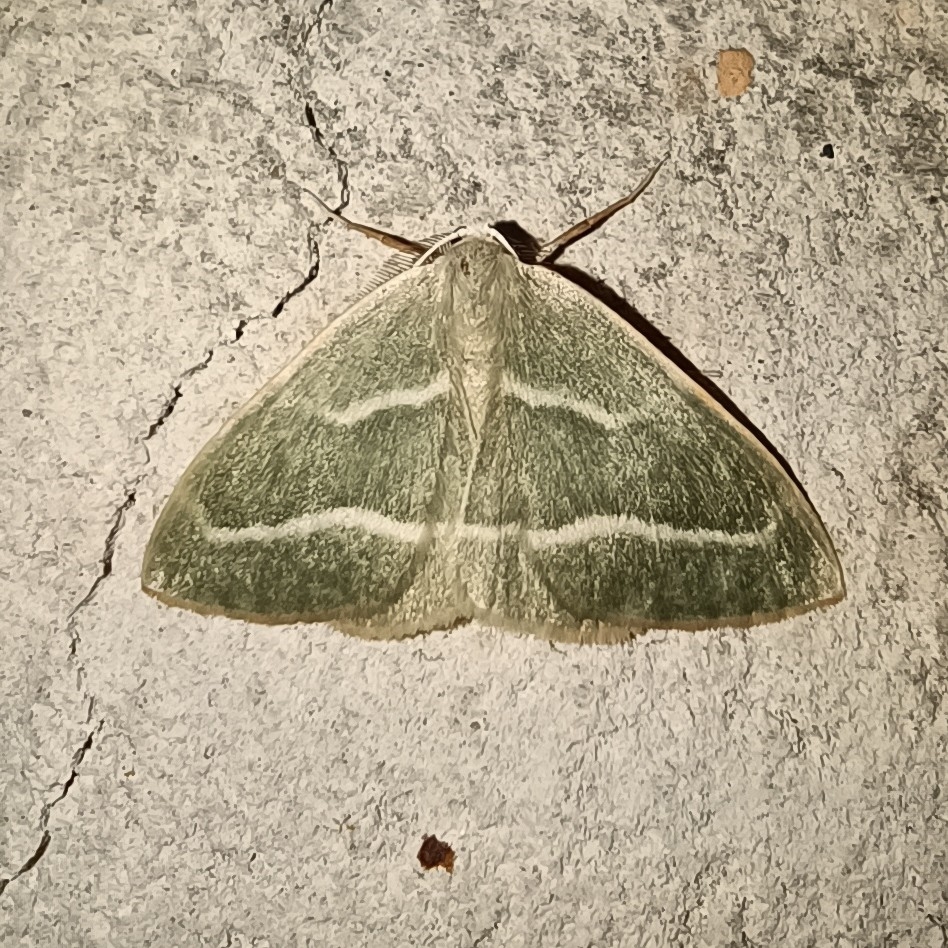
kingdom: Animalia
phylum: Arthropoda
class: Insecta
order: Lepidoptera
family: Geometridae
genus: Hylaea
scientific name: Hylaea fasciaria
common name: Barred red
